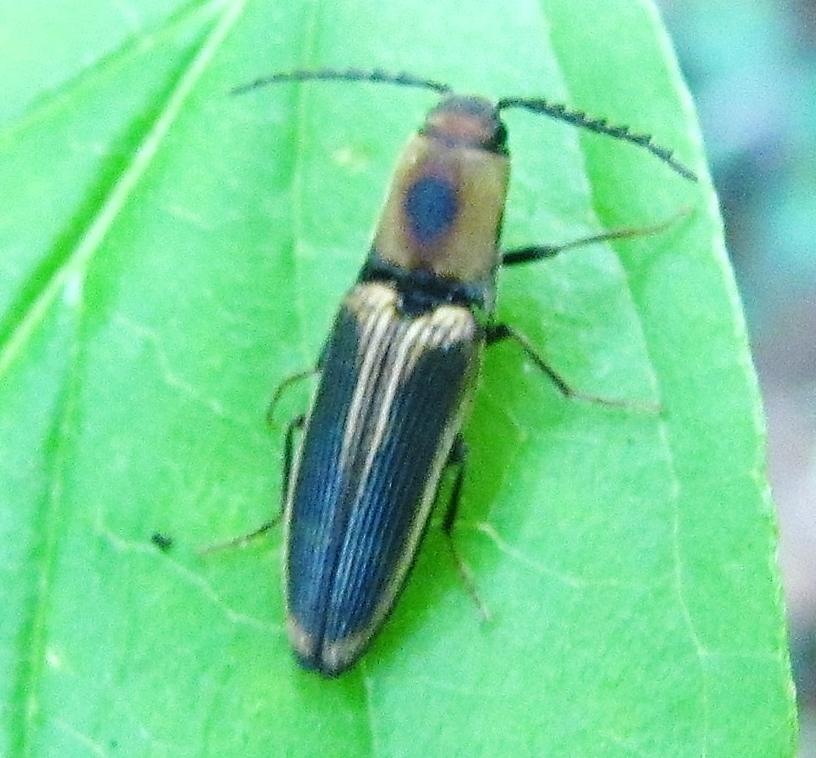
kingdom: Animalia
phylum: Arthropoda
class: Insecta
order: Coleoptera
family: Elateridae
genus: Megapenthes
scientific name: Megapenthes
